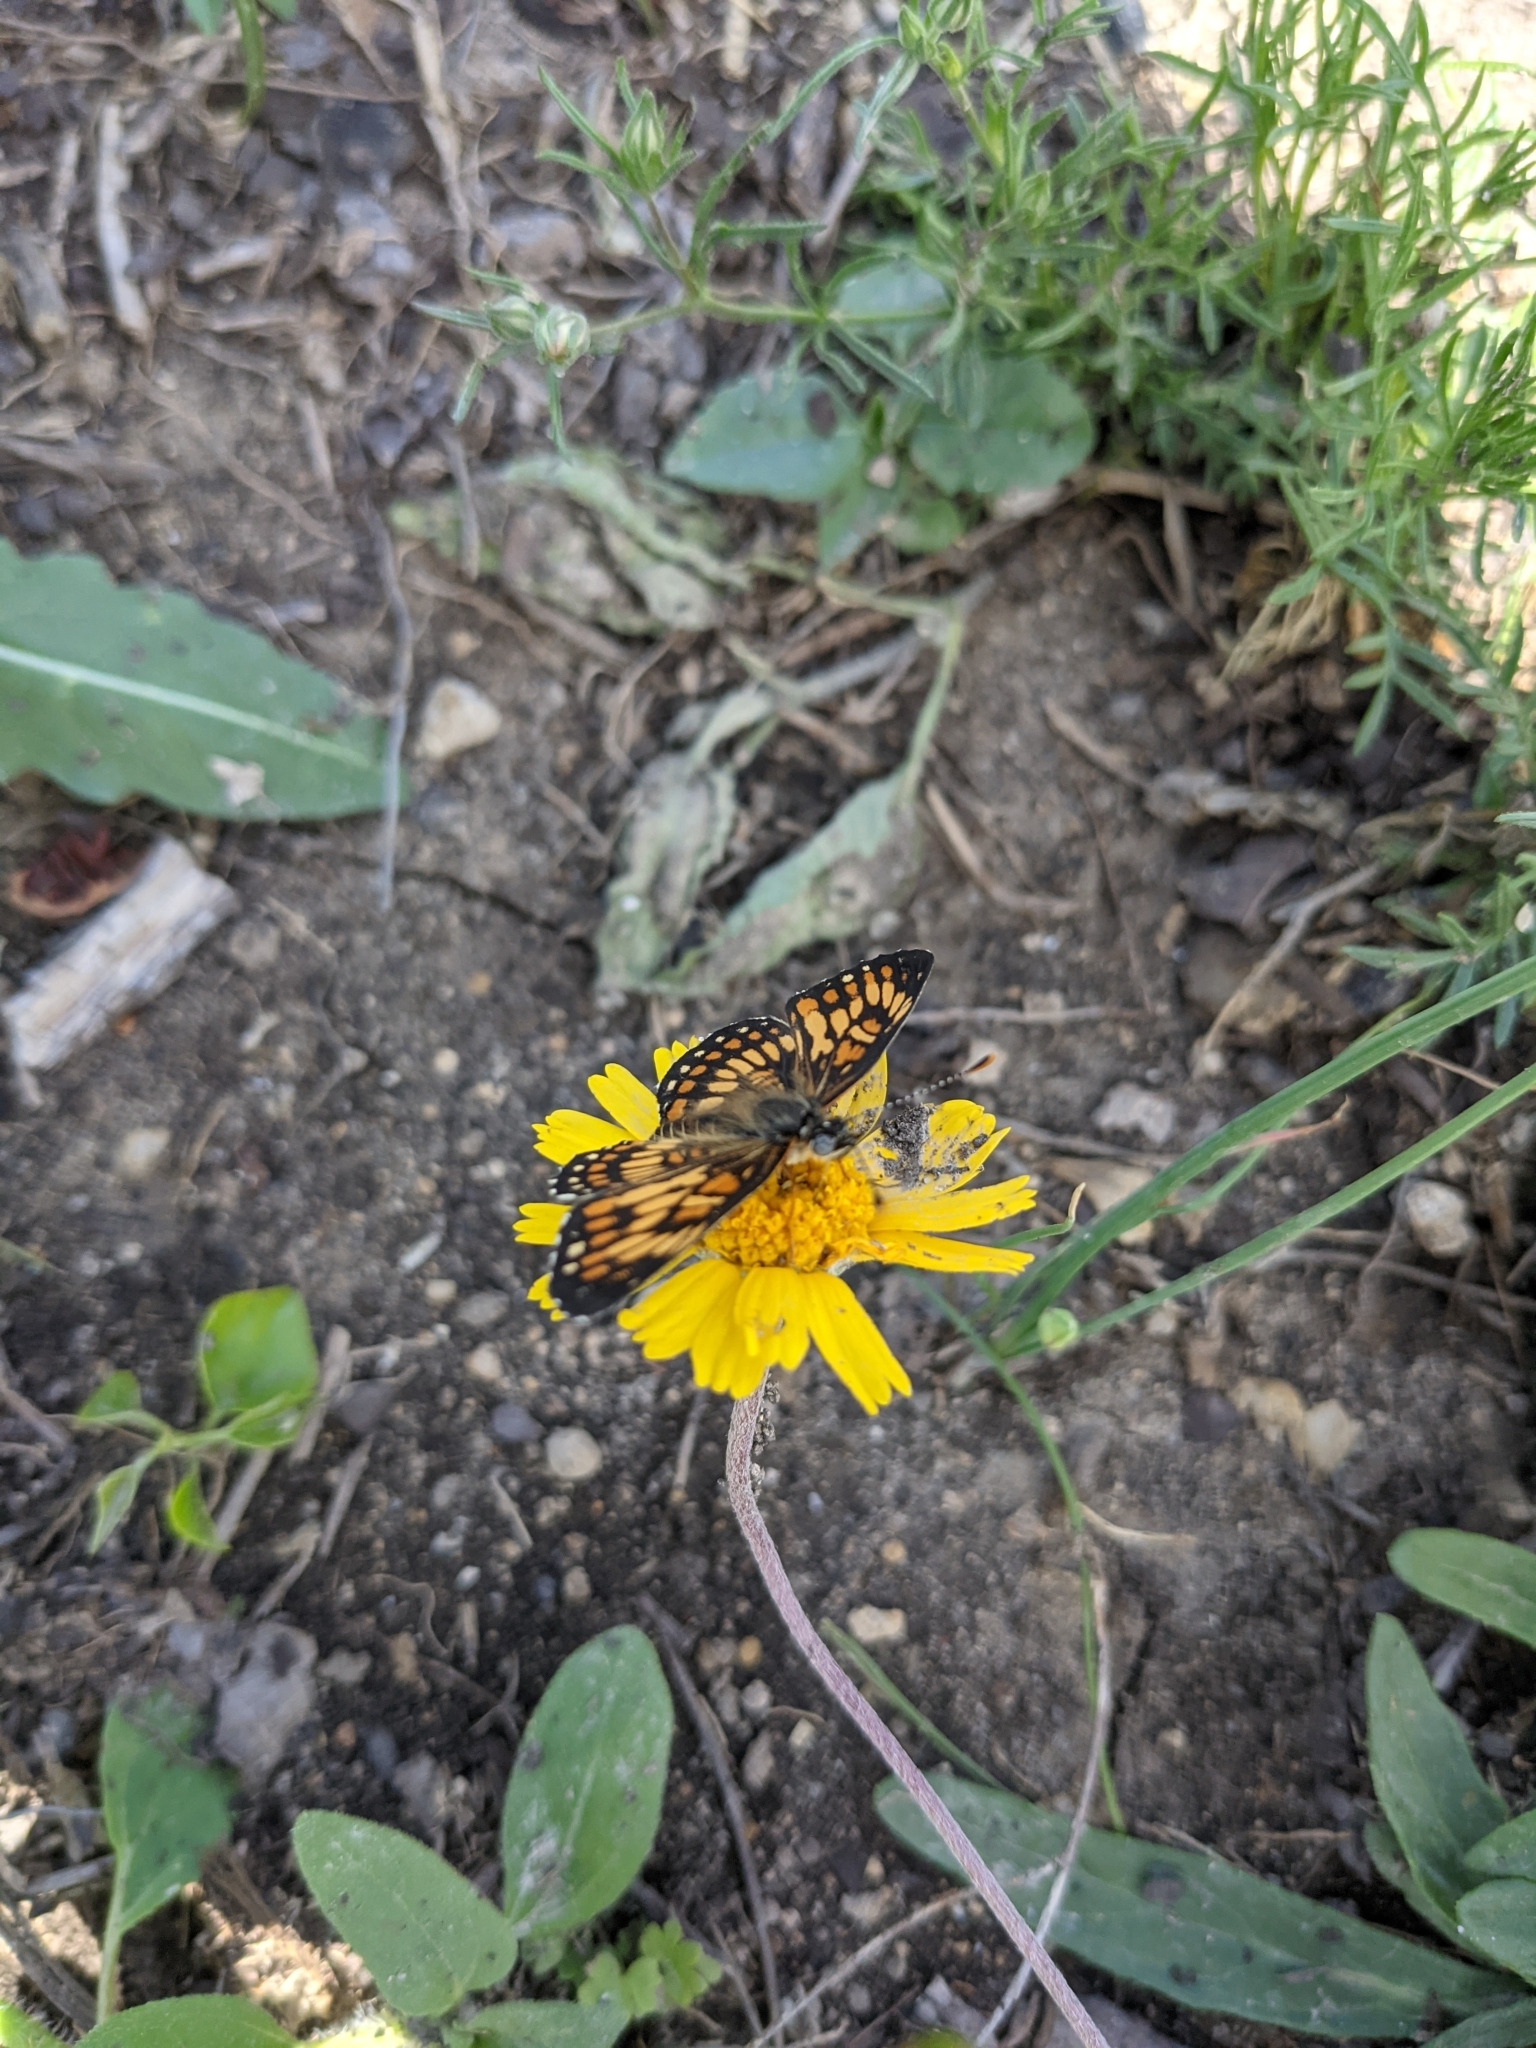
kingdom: Animalia
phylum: Arthropoda
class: Insecta
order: Lepidoptera
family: Nymphalidae
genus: Thessalia
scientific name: Thessalia theona
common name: Nymphalid moth
